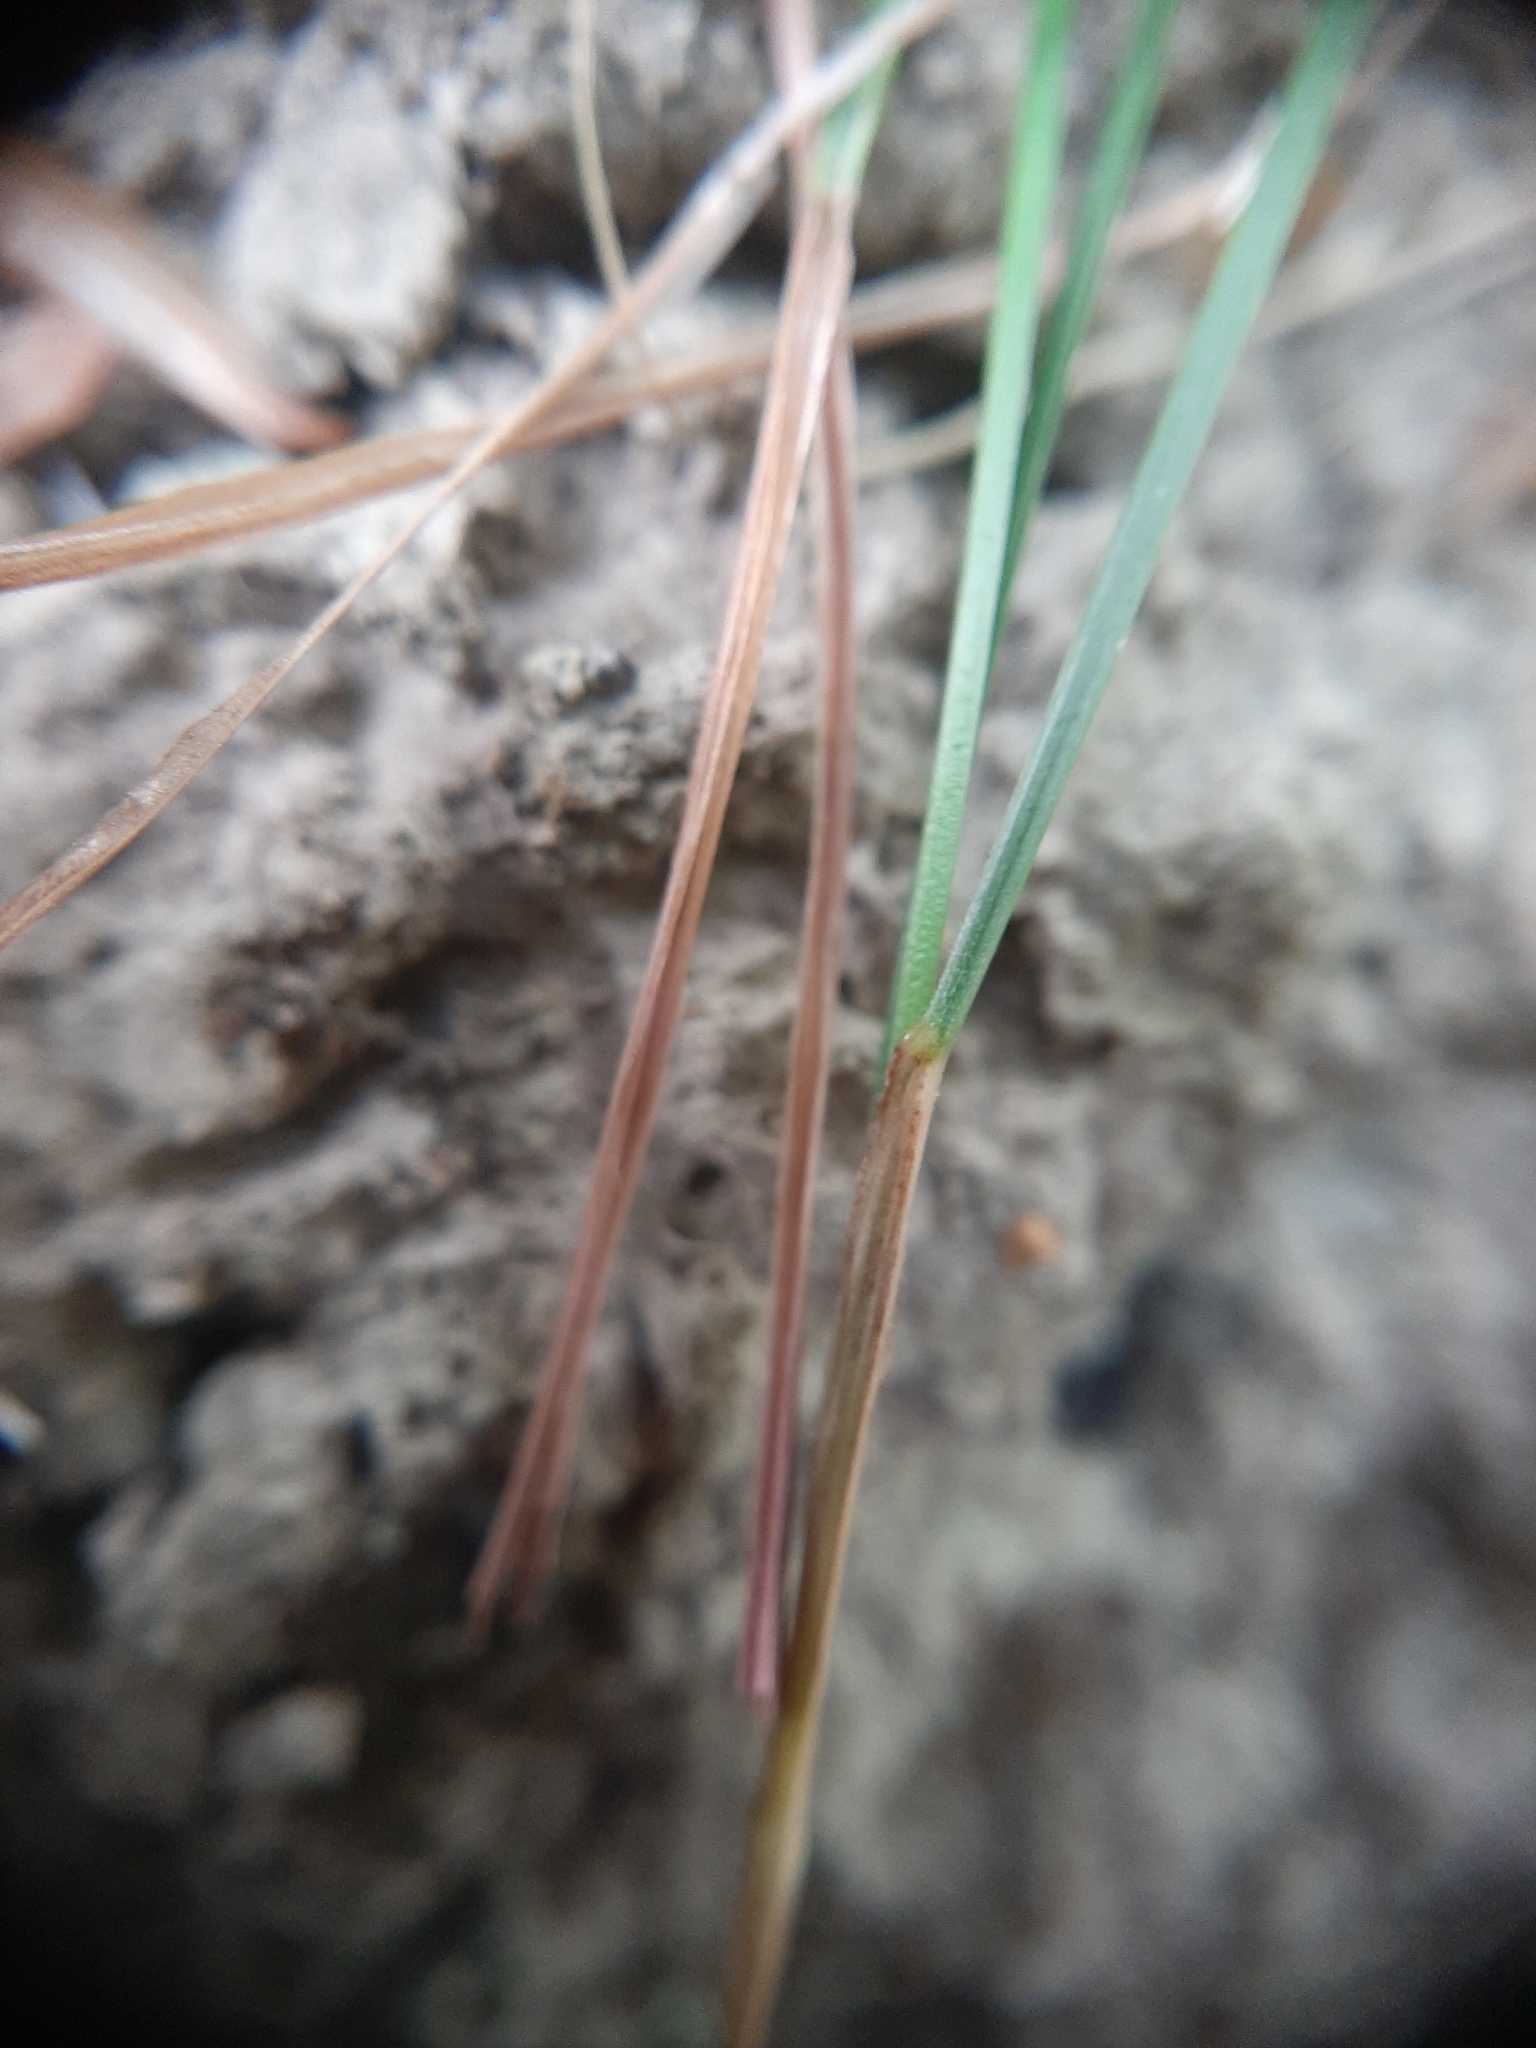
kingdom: Plantae
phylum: Tracheophyta
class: Liliopsida
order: Poales
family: Poaceae
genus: Festuca
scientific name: Festuca rubra
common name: Red fescue
